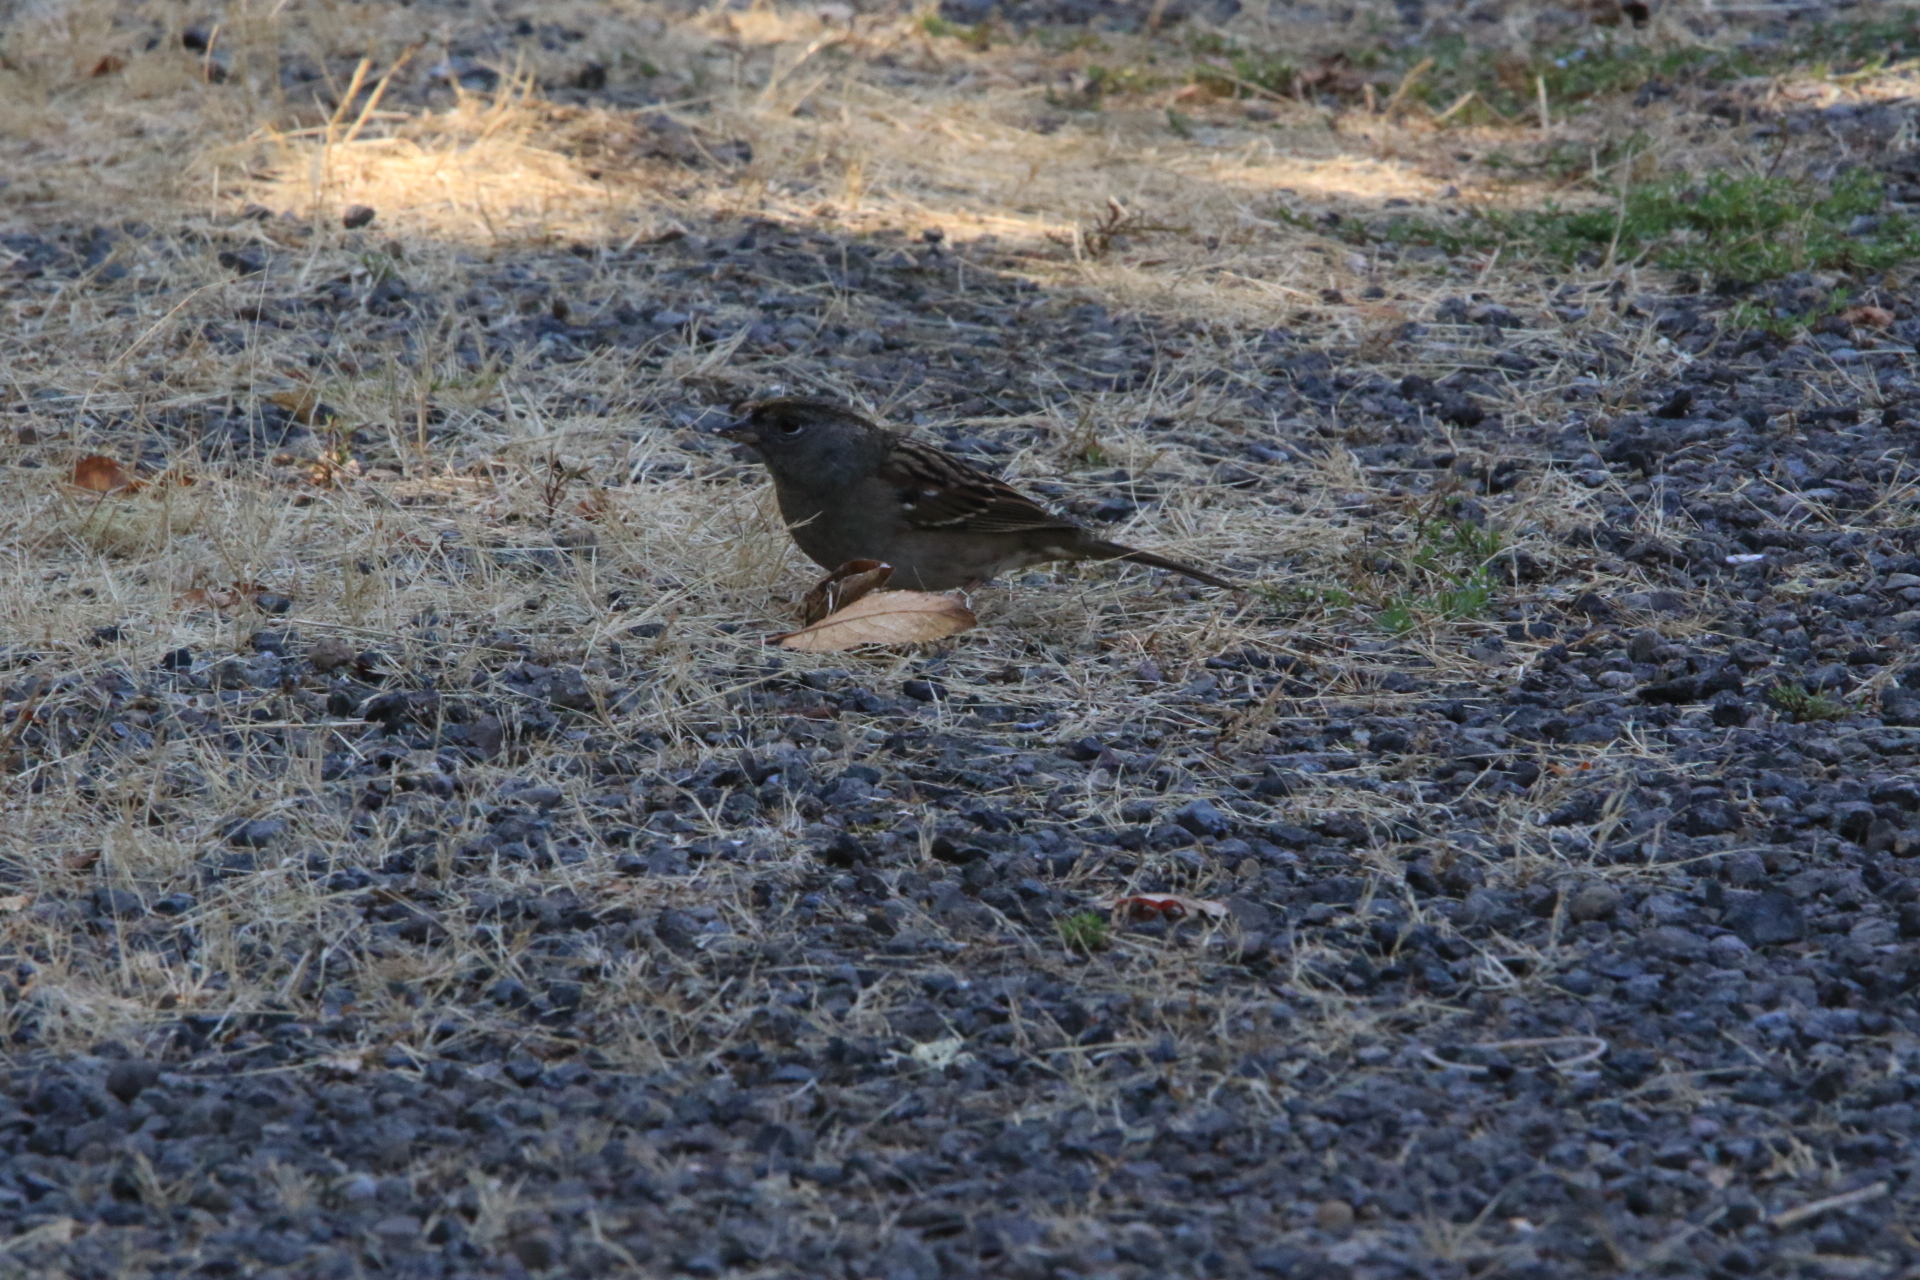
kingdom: Animalia
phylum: Chordata
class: Aves
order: Passeriformes
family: Passerellidae
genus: Zonotrichia
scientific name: Zonotrichia atricapilla
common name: Golden-crowned sparrow
